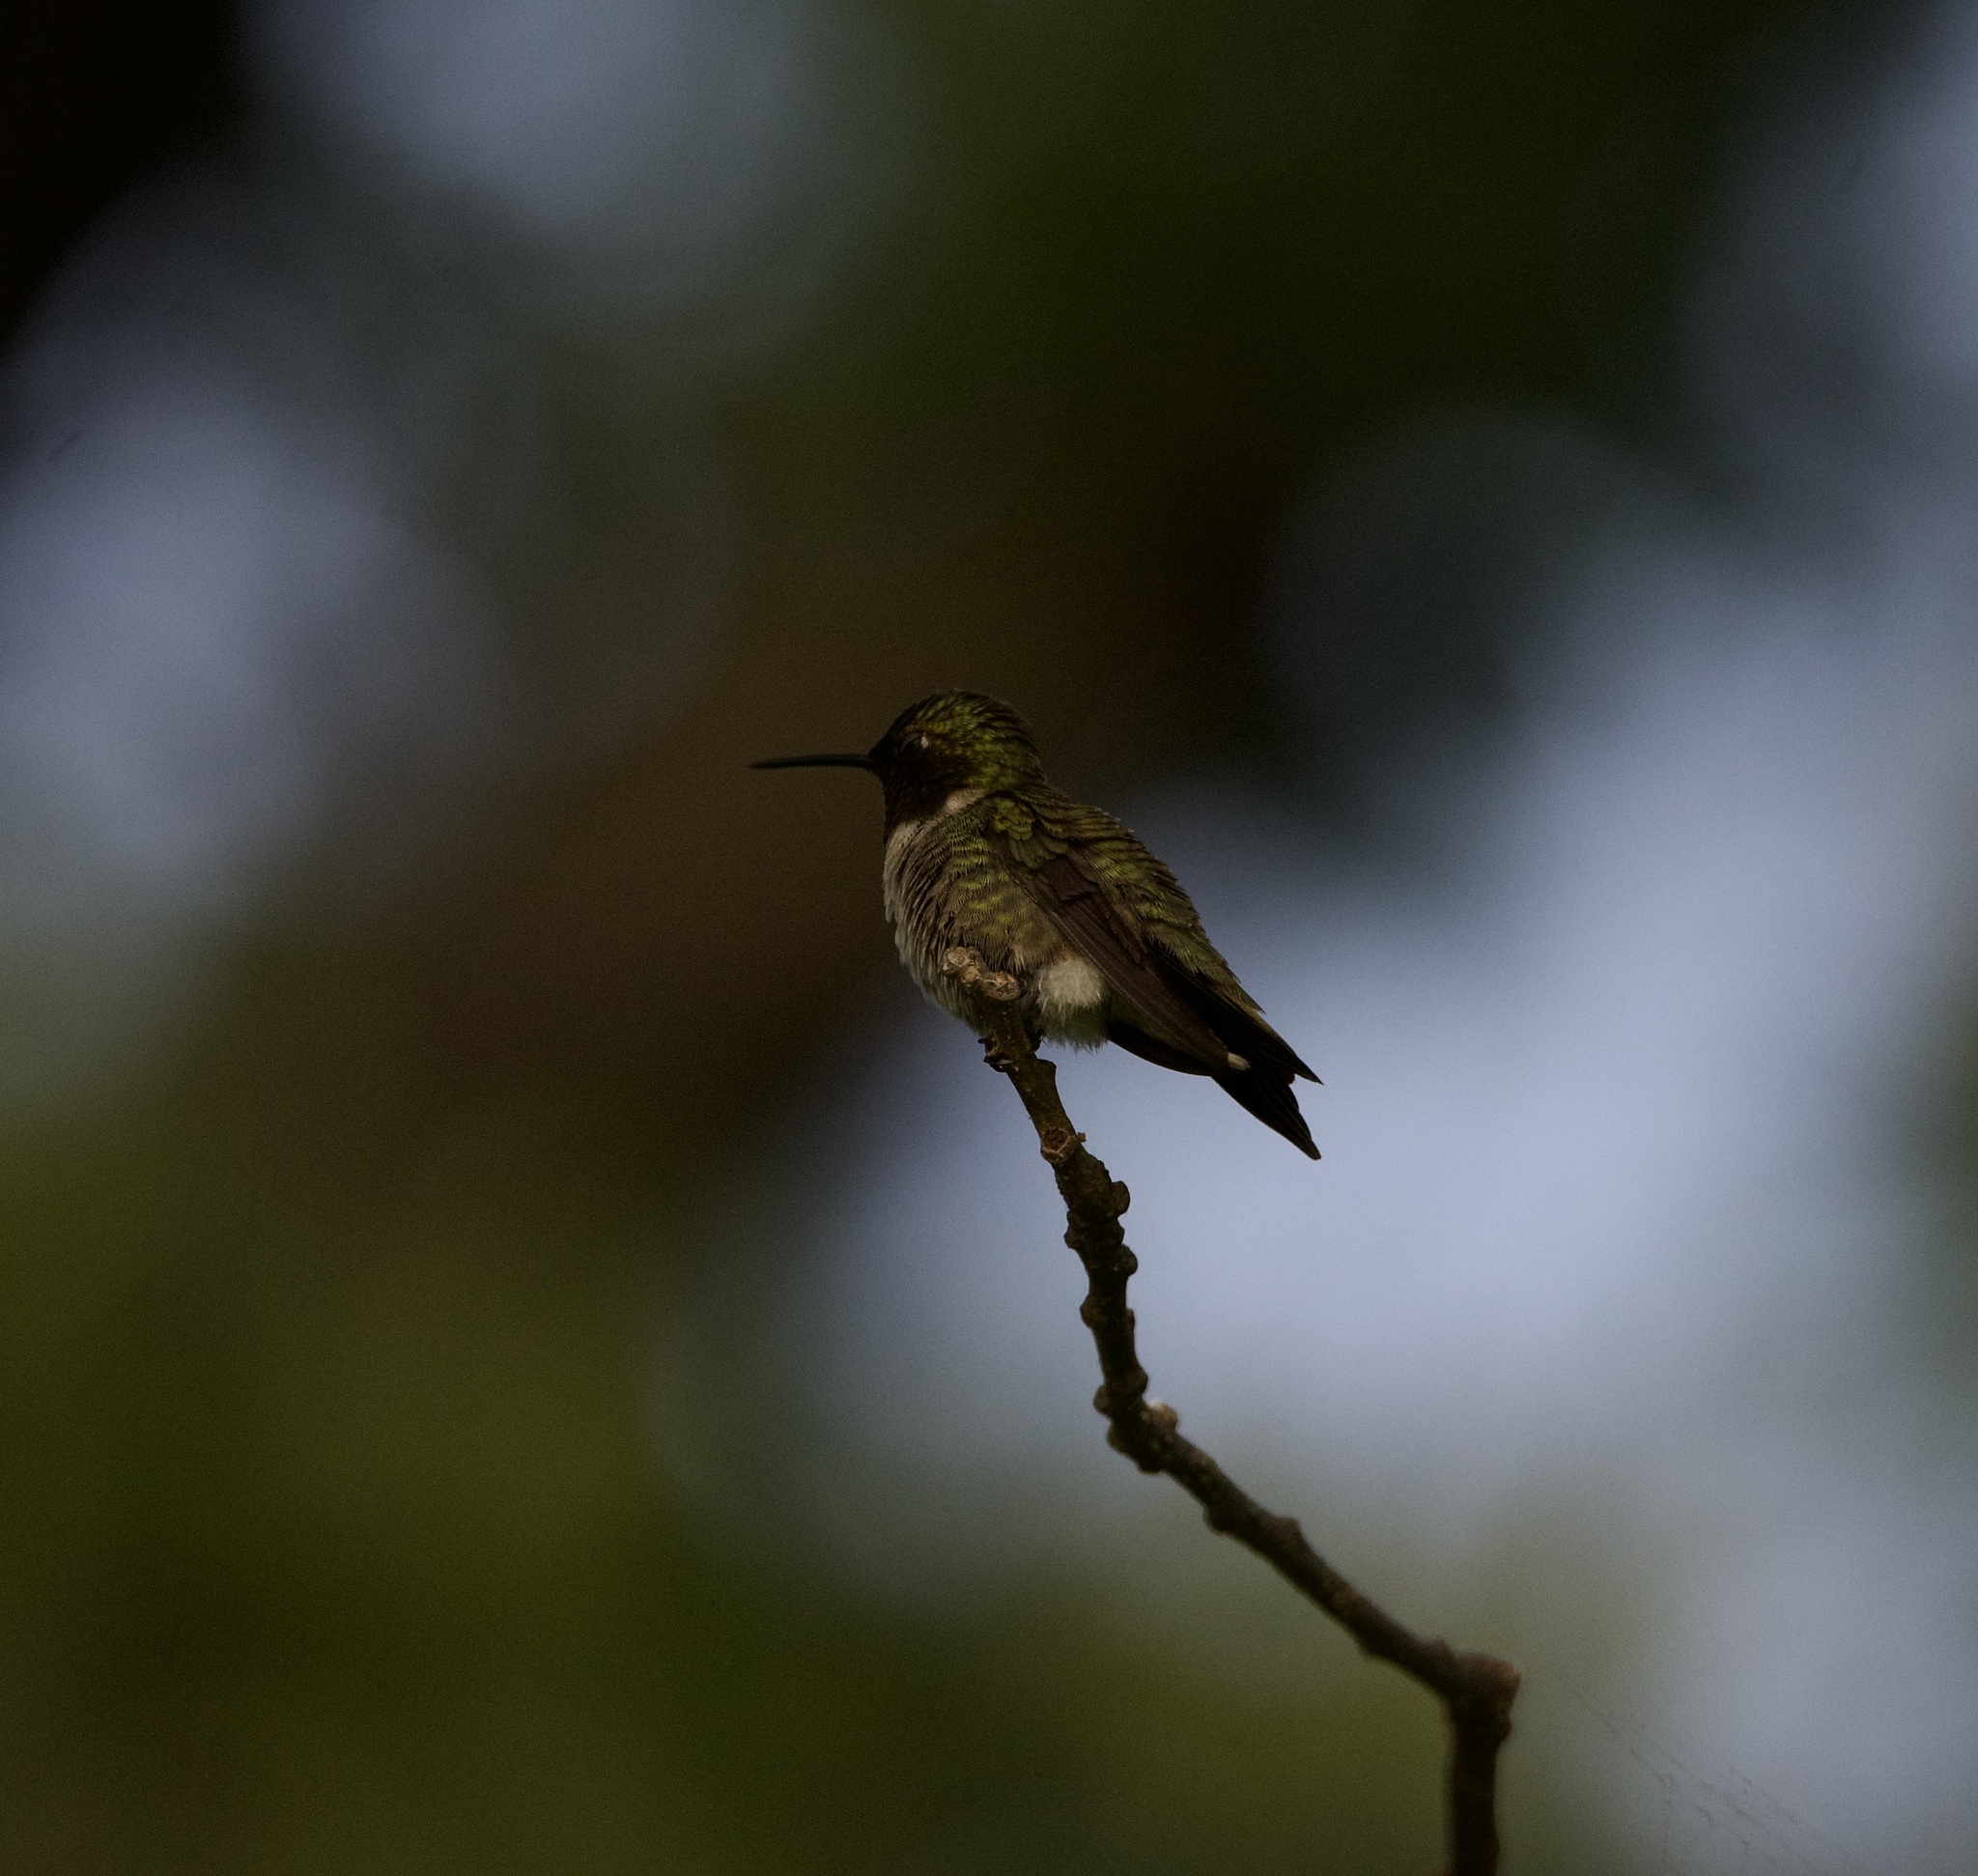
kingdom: Animalia
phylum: Chordata
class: Aves
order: Apodiformes
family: Trochilidae
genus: Archilochus
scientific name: Archilochus colubris
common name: Ruby-throated hummingbird
